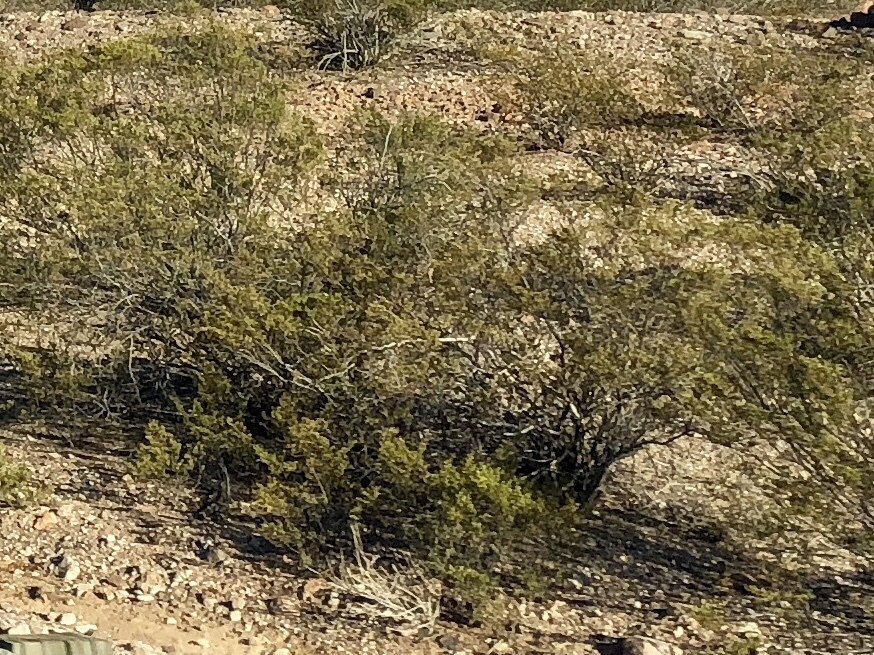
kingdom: Plantae
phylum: Tracheophyta
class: Magnoliopsida
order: Zygophyllales
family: Zygophyllaceae
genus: Larrea
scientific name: Larrea tridentata
